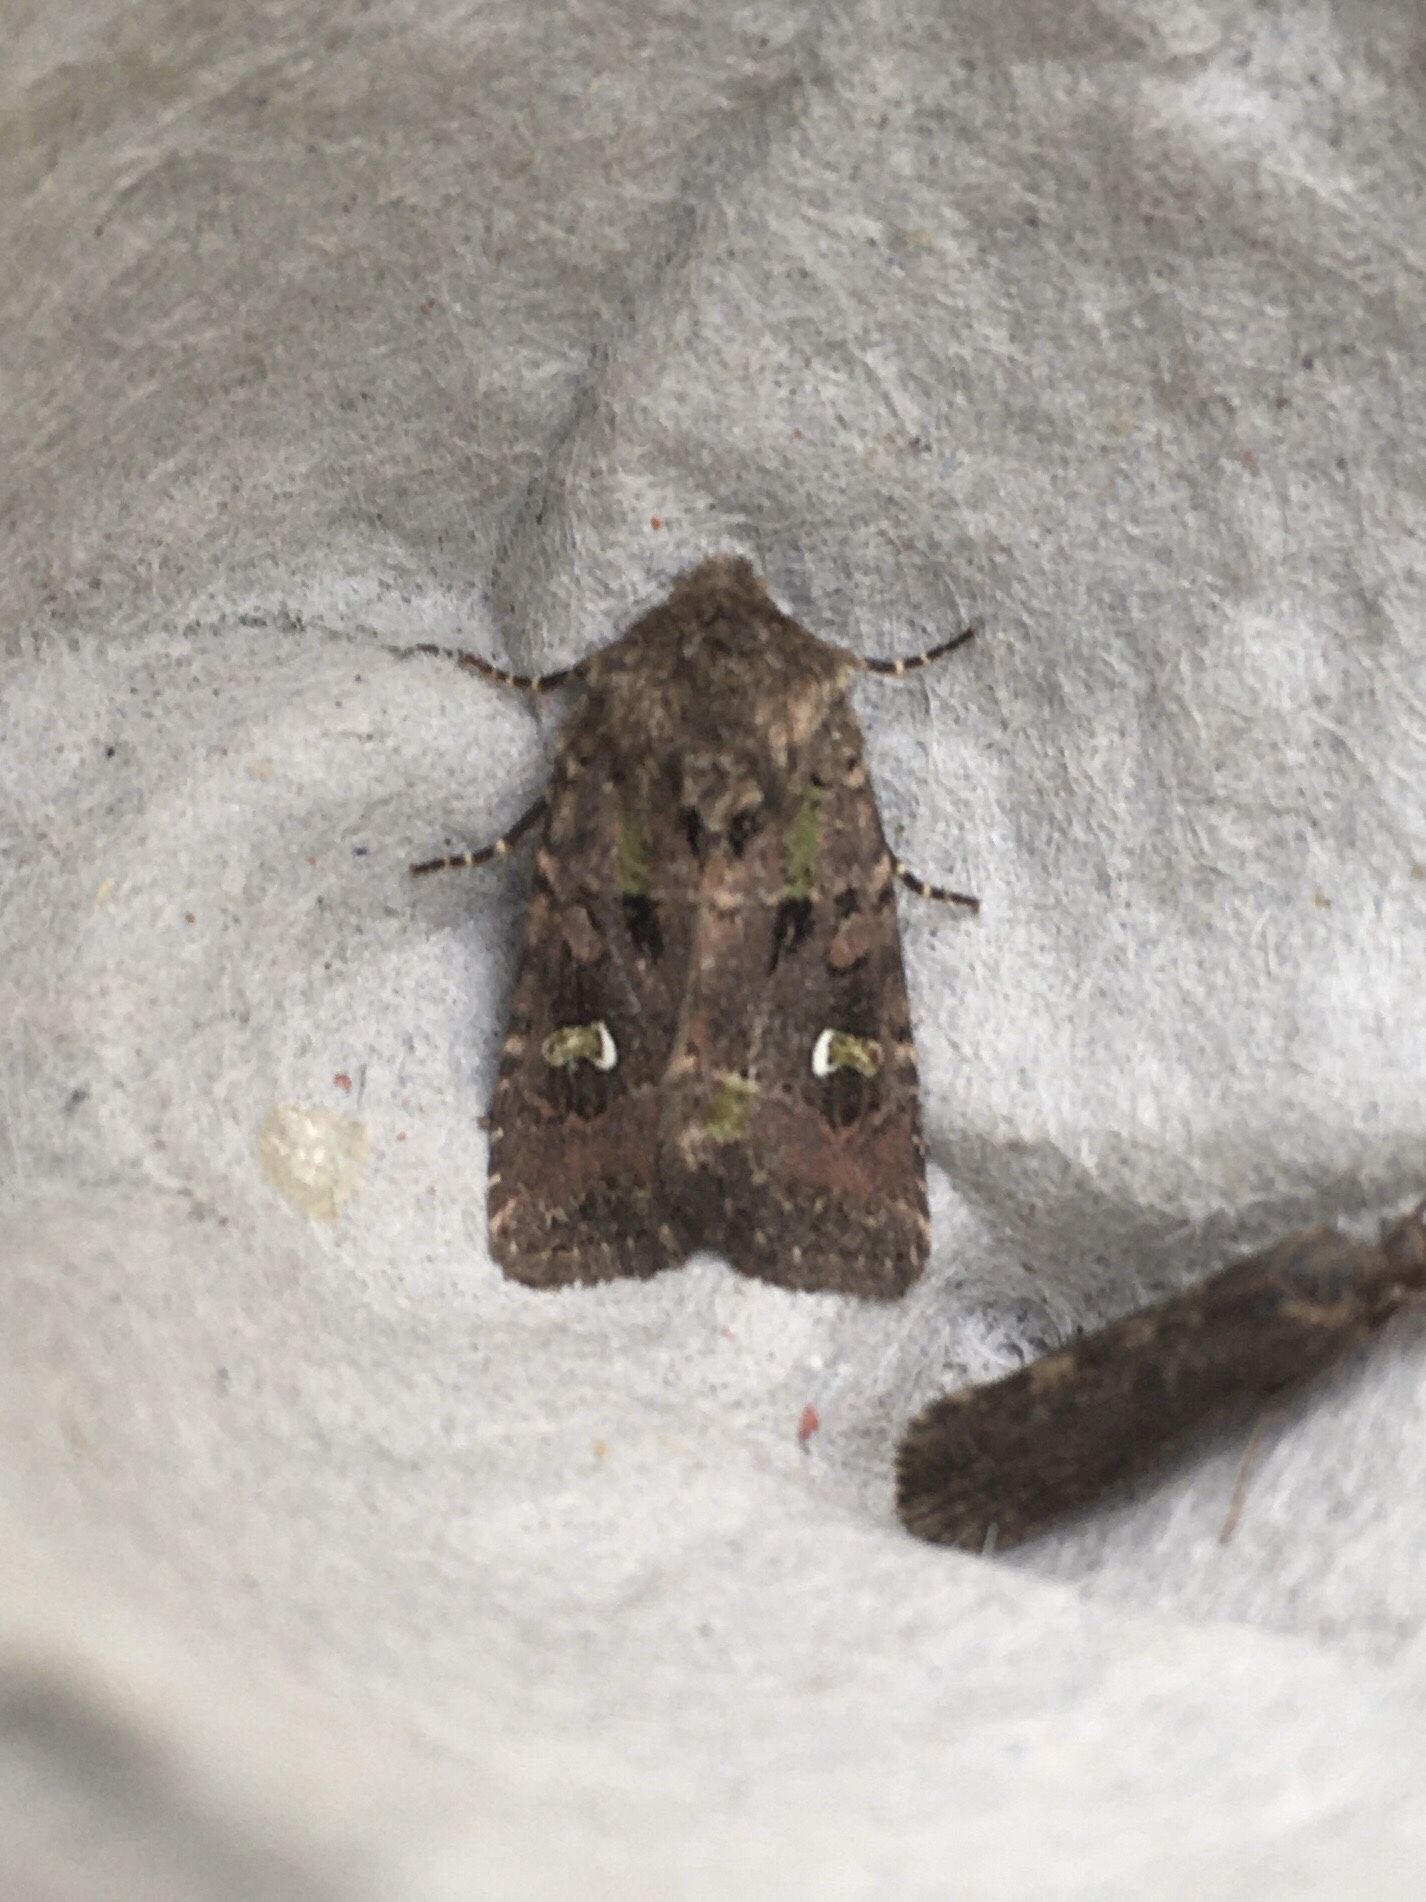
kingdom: Animalia
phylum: Arthropoda
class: Insecta
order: Lepidoptera
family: Noctuidae
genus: Lacinipolia
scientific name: Lacinipolia renigera
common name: Kidney-spotted minor
